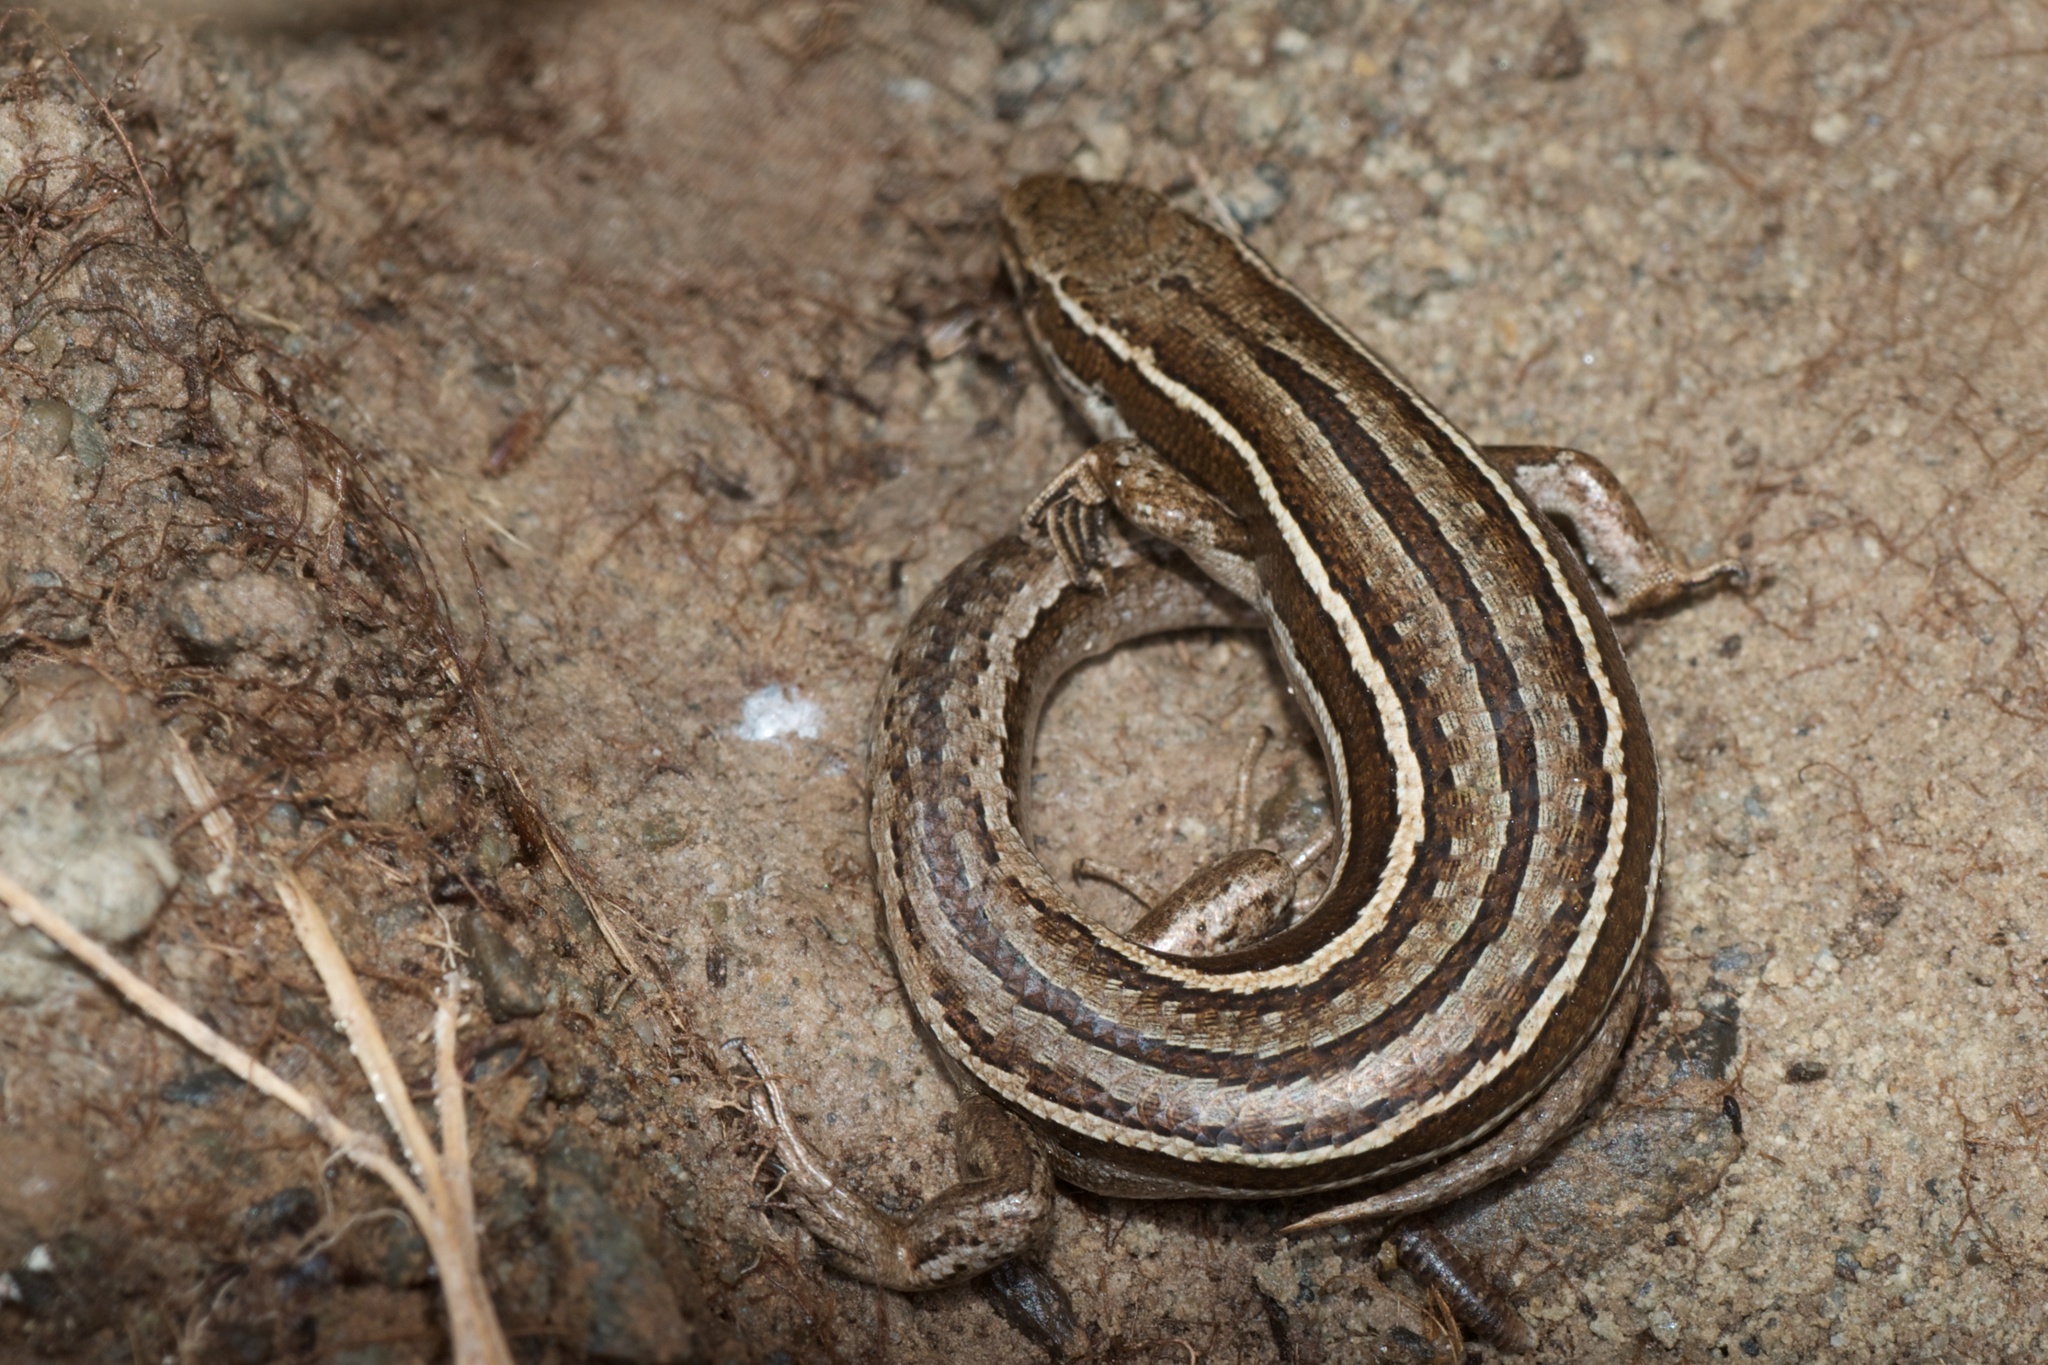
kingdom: Animalia
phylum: Chordata
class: Squamata
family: Scincidae
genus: Oligosoma
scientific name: Oligosoma maccanni
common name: Mccann’s skink
